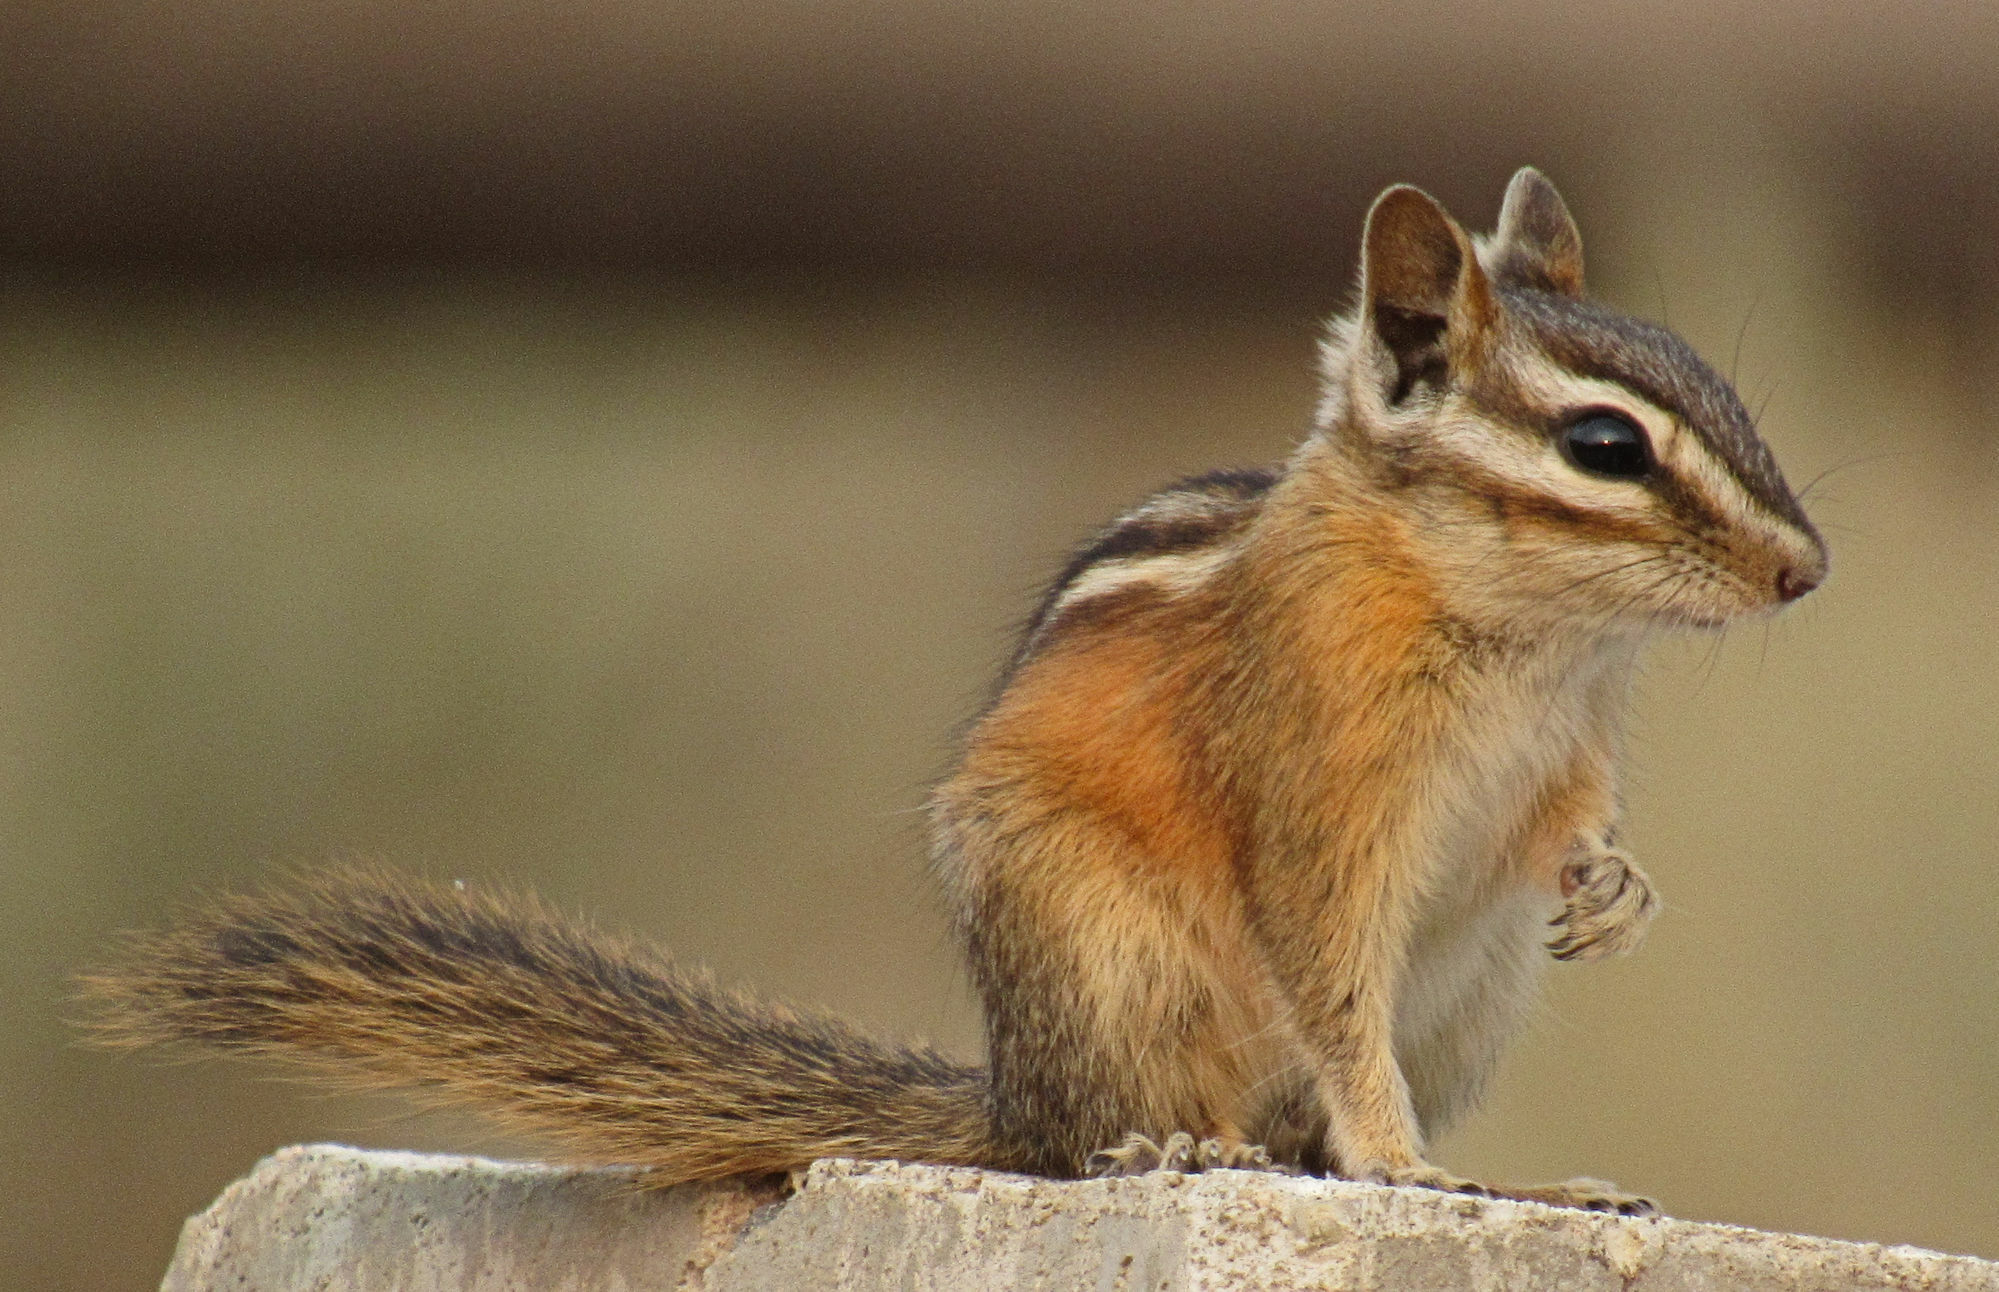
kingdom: Animalia
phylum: Chordata
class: Mammalia
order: Rodentia
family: Sciuridae
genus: Tamias
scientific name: Tamias amoenus
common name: Yellow-pine chipmunk
